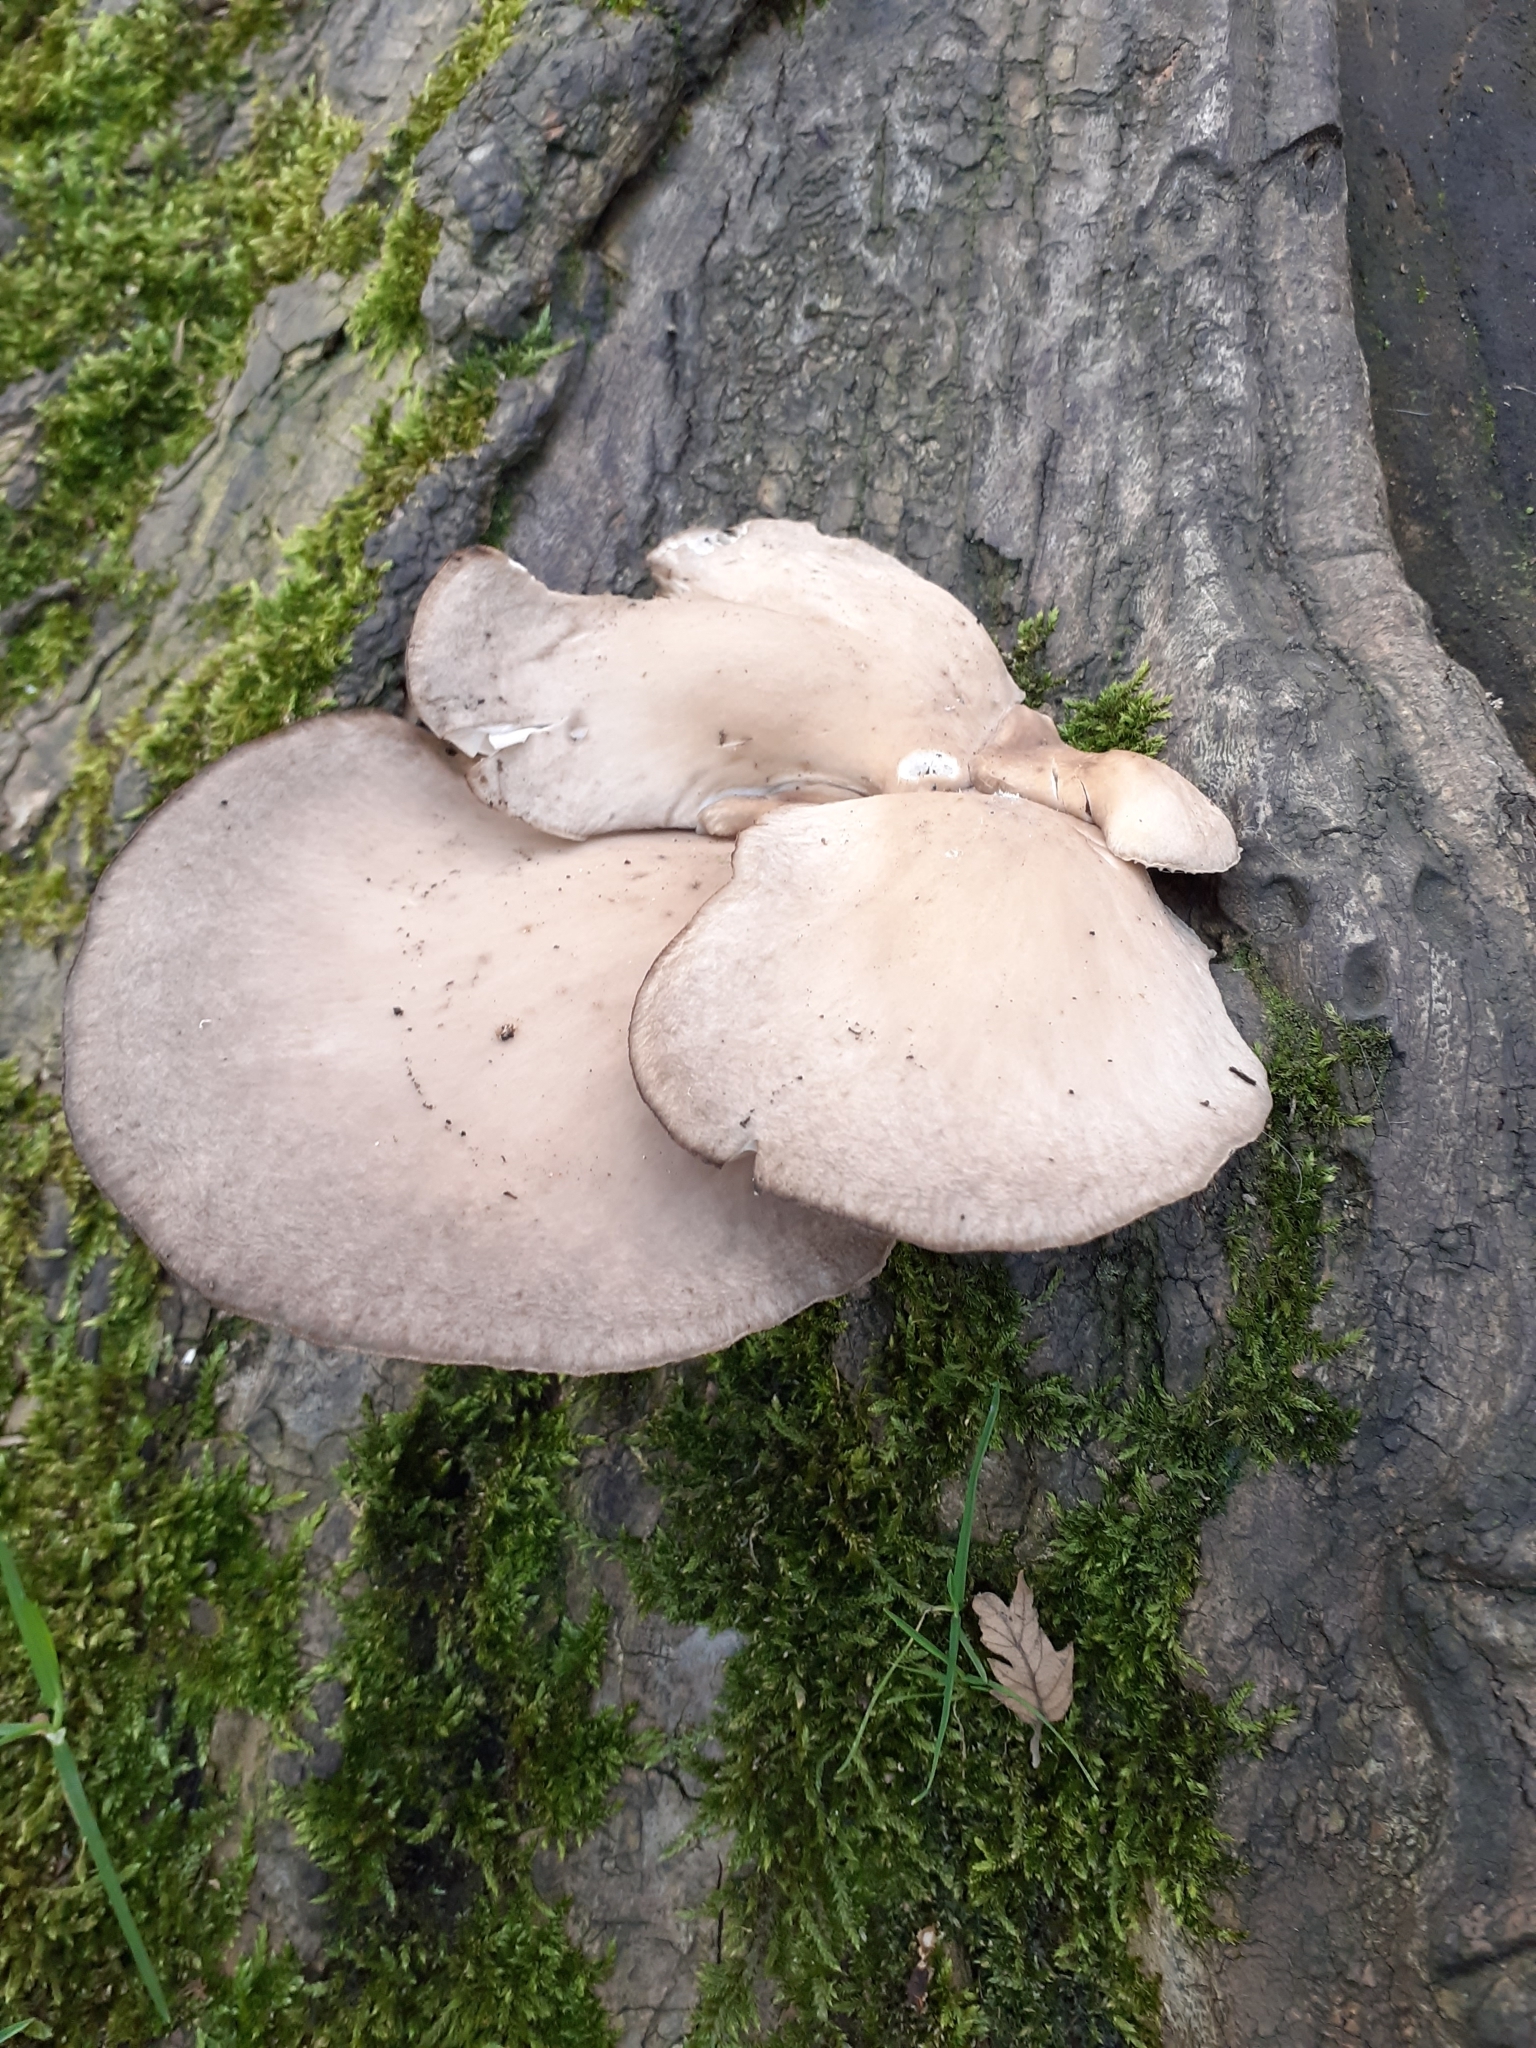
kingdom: Fungi
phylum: Basidiomycota
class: Agaricomycetes
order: Agaricales
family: Pleurotaceae
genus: Pleurotus
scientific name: Pleurotus ostreatus
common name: Oyster mushroom
